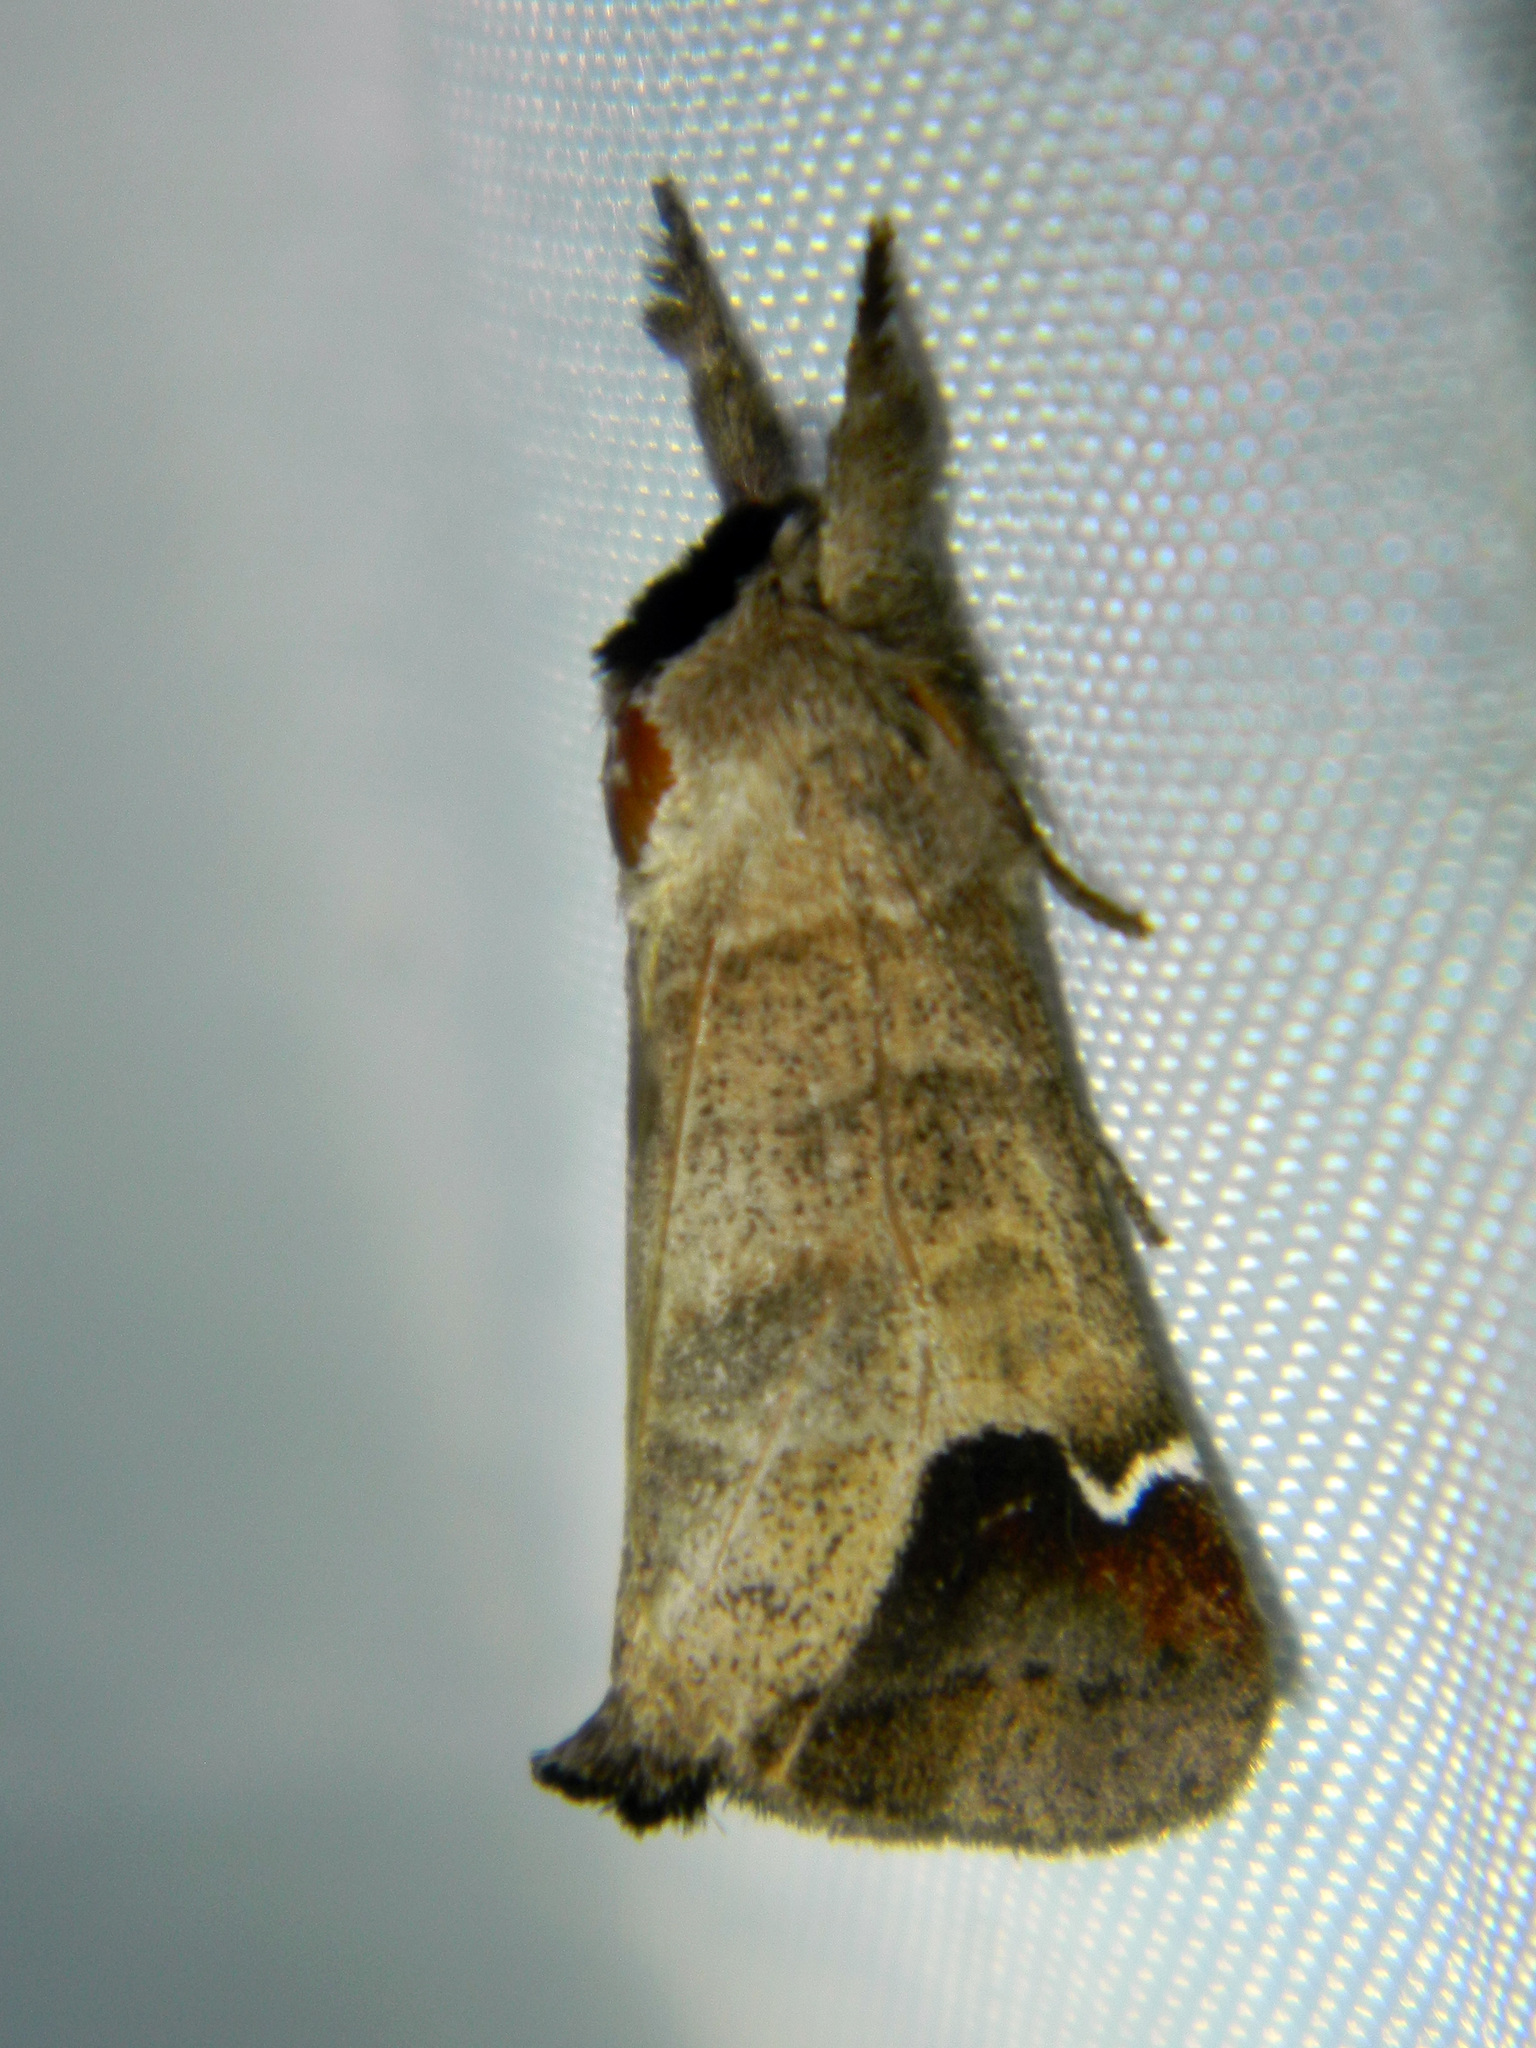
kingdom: Animalia
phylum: Arthropoda
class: Insecta
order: Lepidoptera
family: Notodontidae
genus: Clostera
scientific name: Clostera albosigma
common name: Sigmoid prominent
